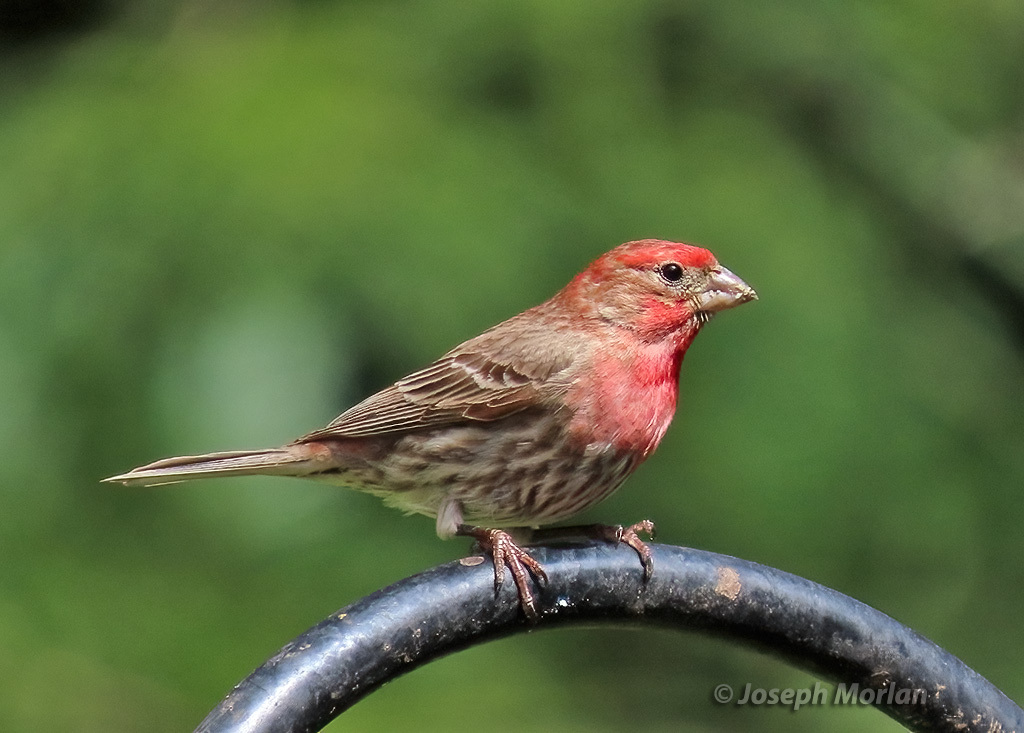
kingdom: Animalia
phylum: Chordata
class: Aves
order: Passeriformes
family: Fringillidae
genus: Haemorhous
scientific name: Haemorhous mexicanus
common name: House finch
